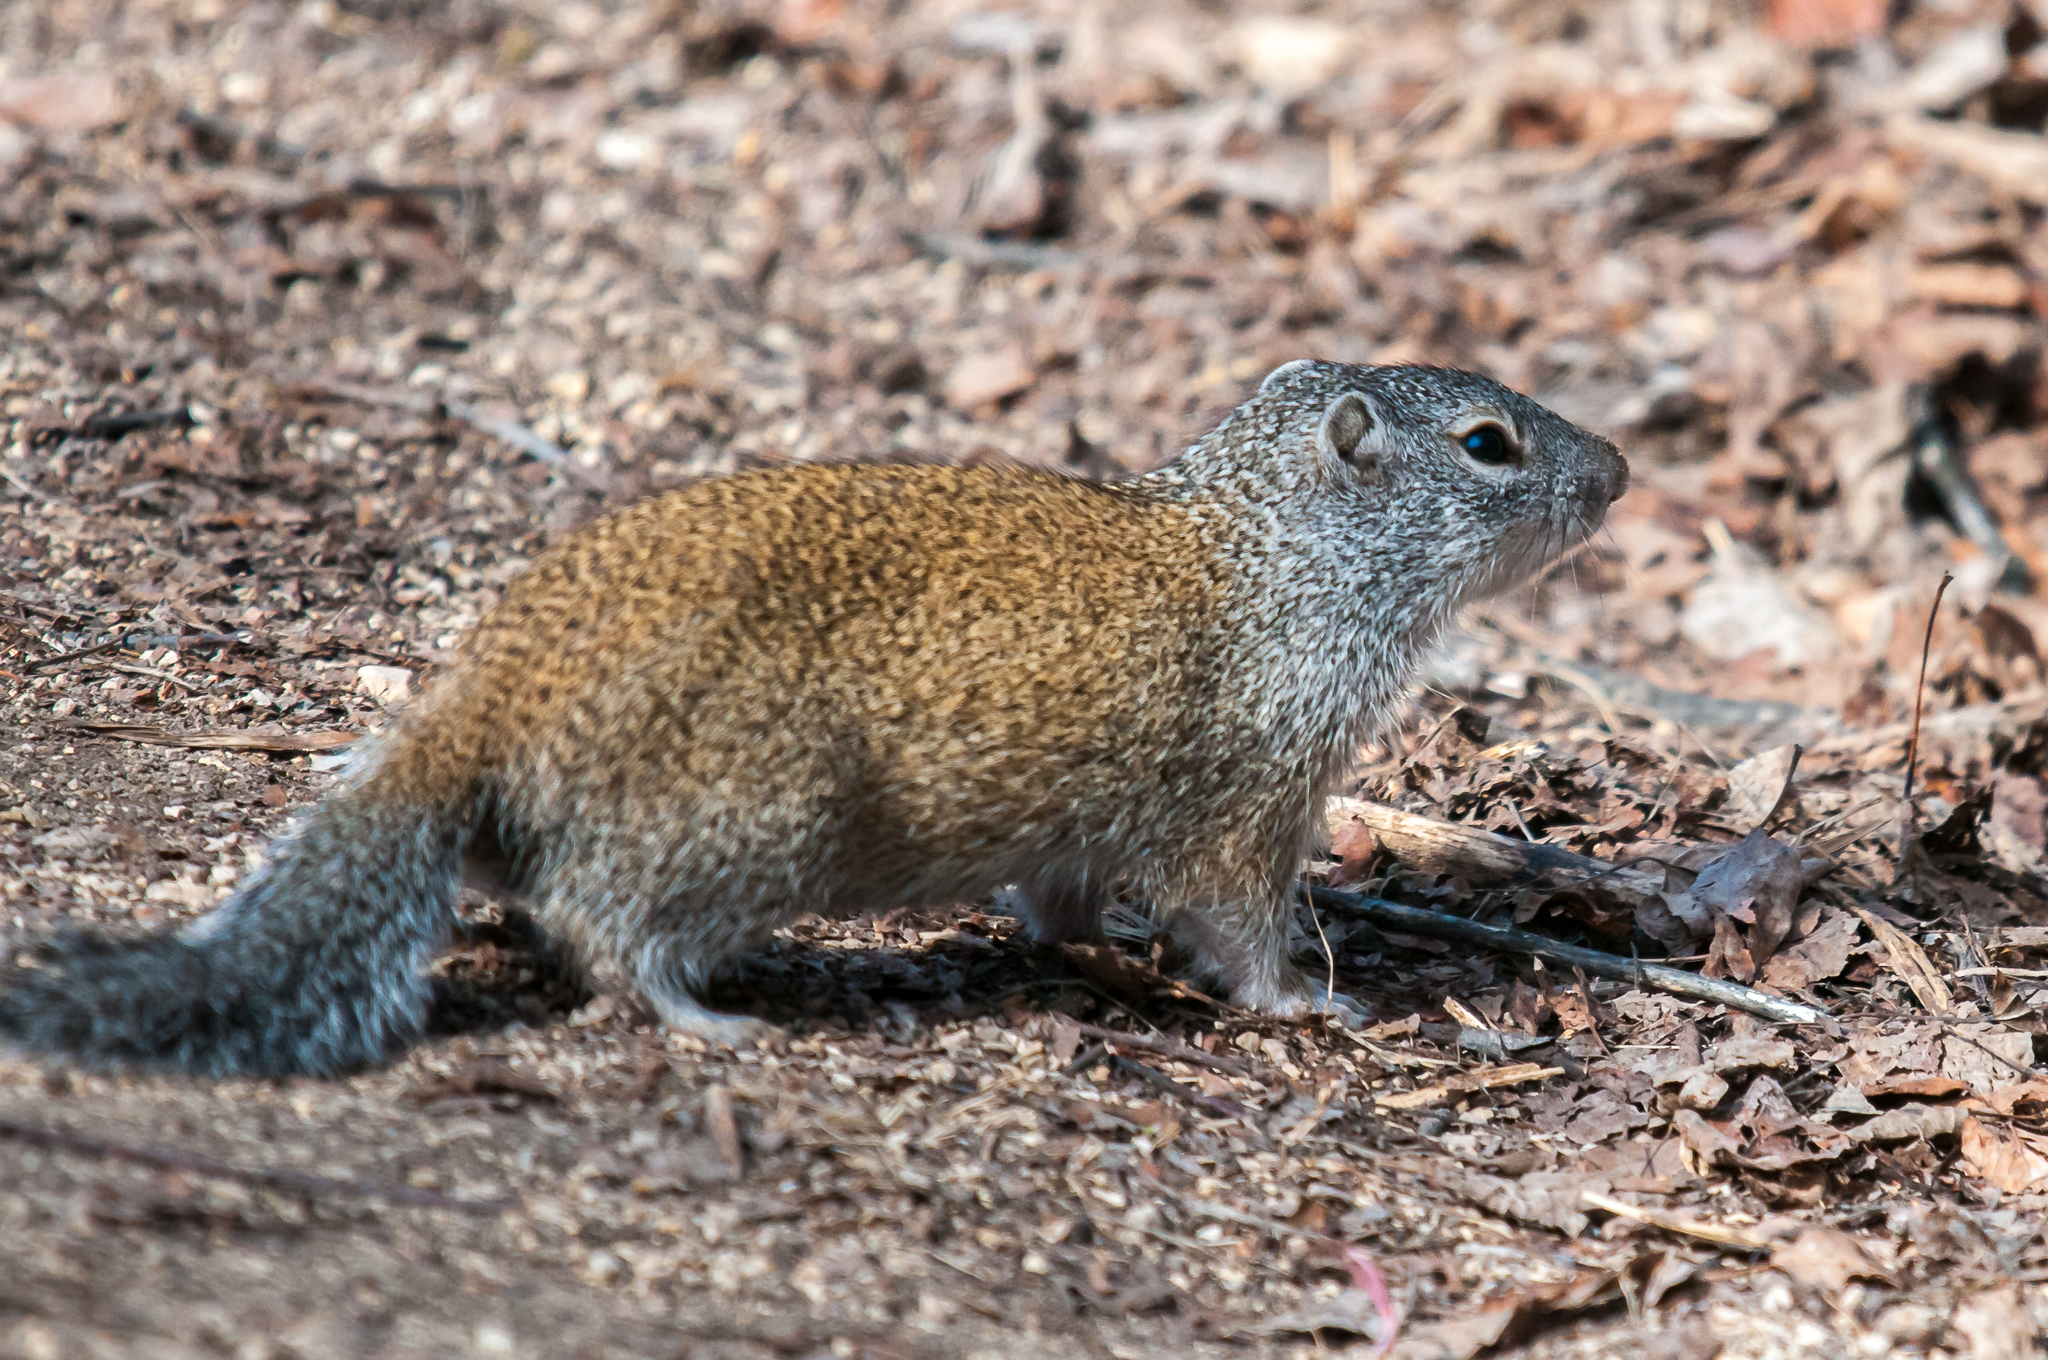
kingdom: Animalia
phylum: Chordata
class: Mammalia
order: Rodentia
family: Sciuridae
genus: Poliocitellus
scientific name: Poliocitellus franklinii
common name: Franklin's ground squirrel
